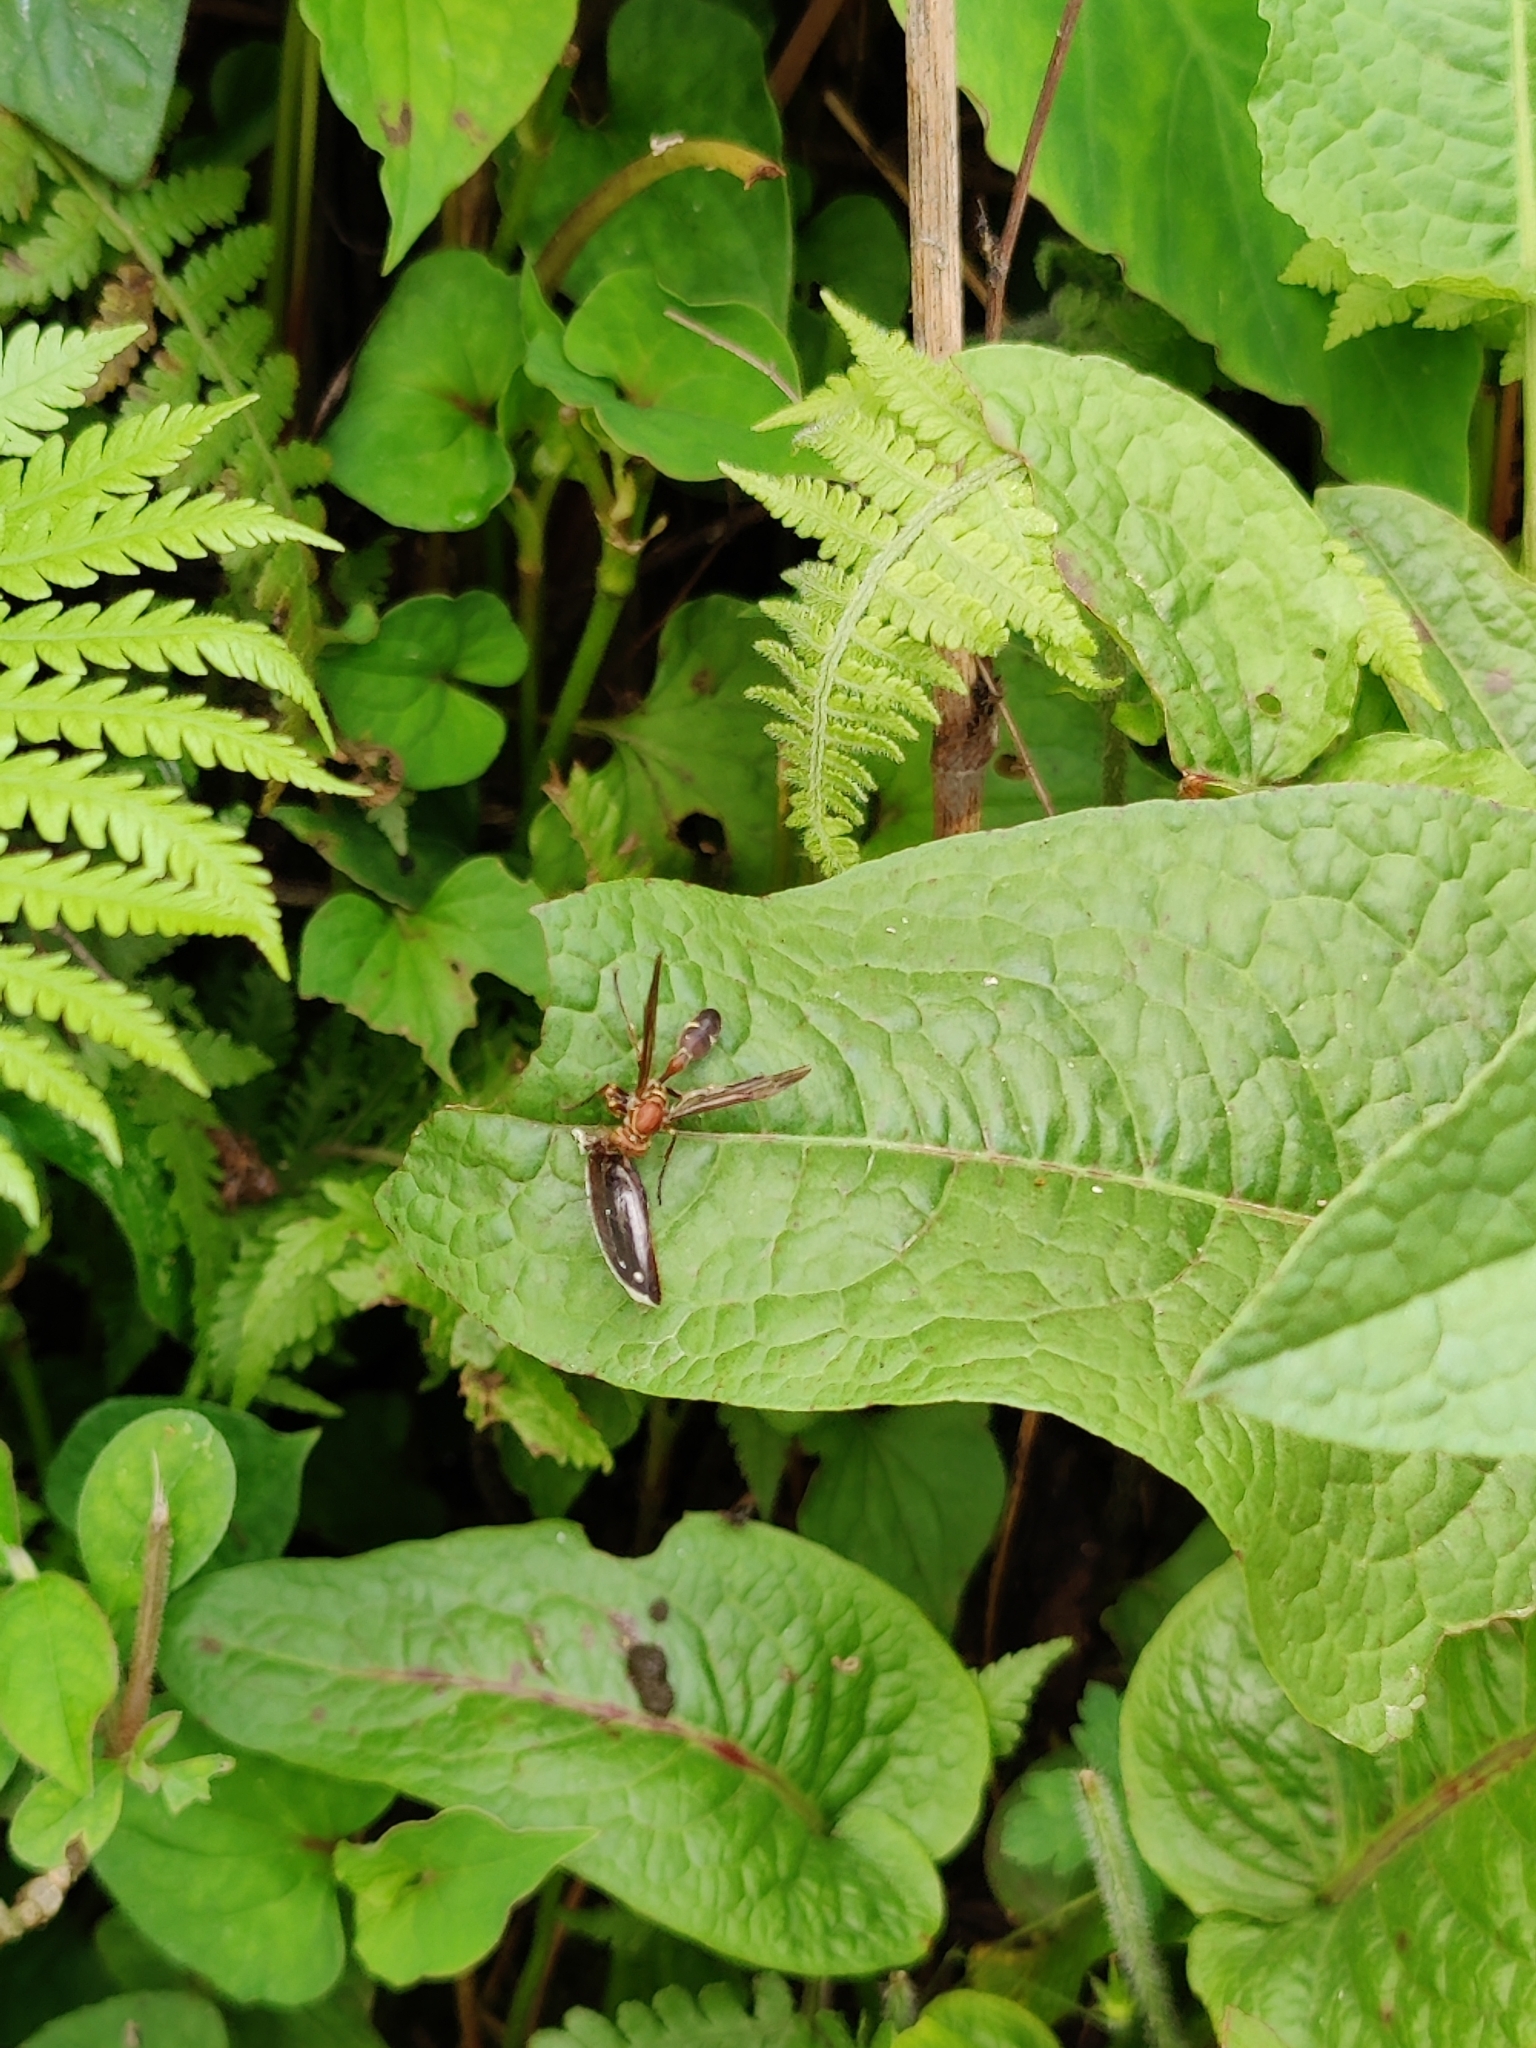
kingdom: Animalia
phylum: Arthropoda
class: Insecta
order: Hymenoptera
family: Vespidae
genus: Parapolybia
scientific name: Parapolybia nodosa
